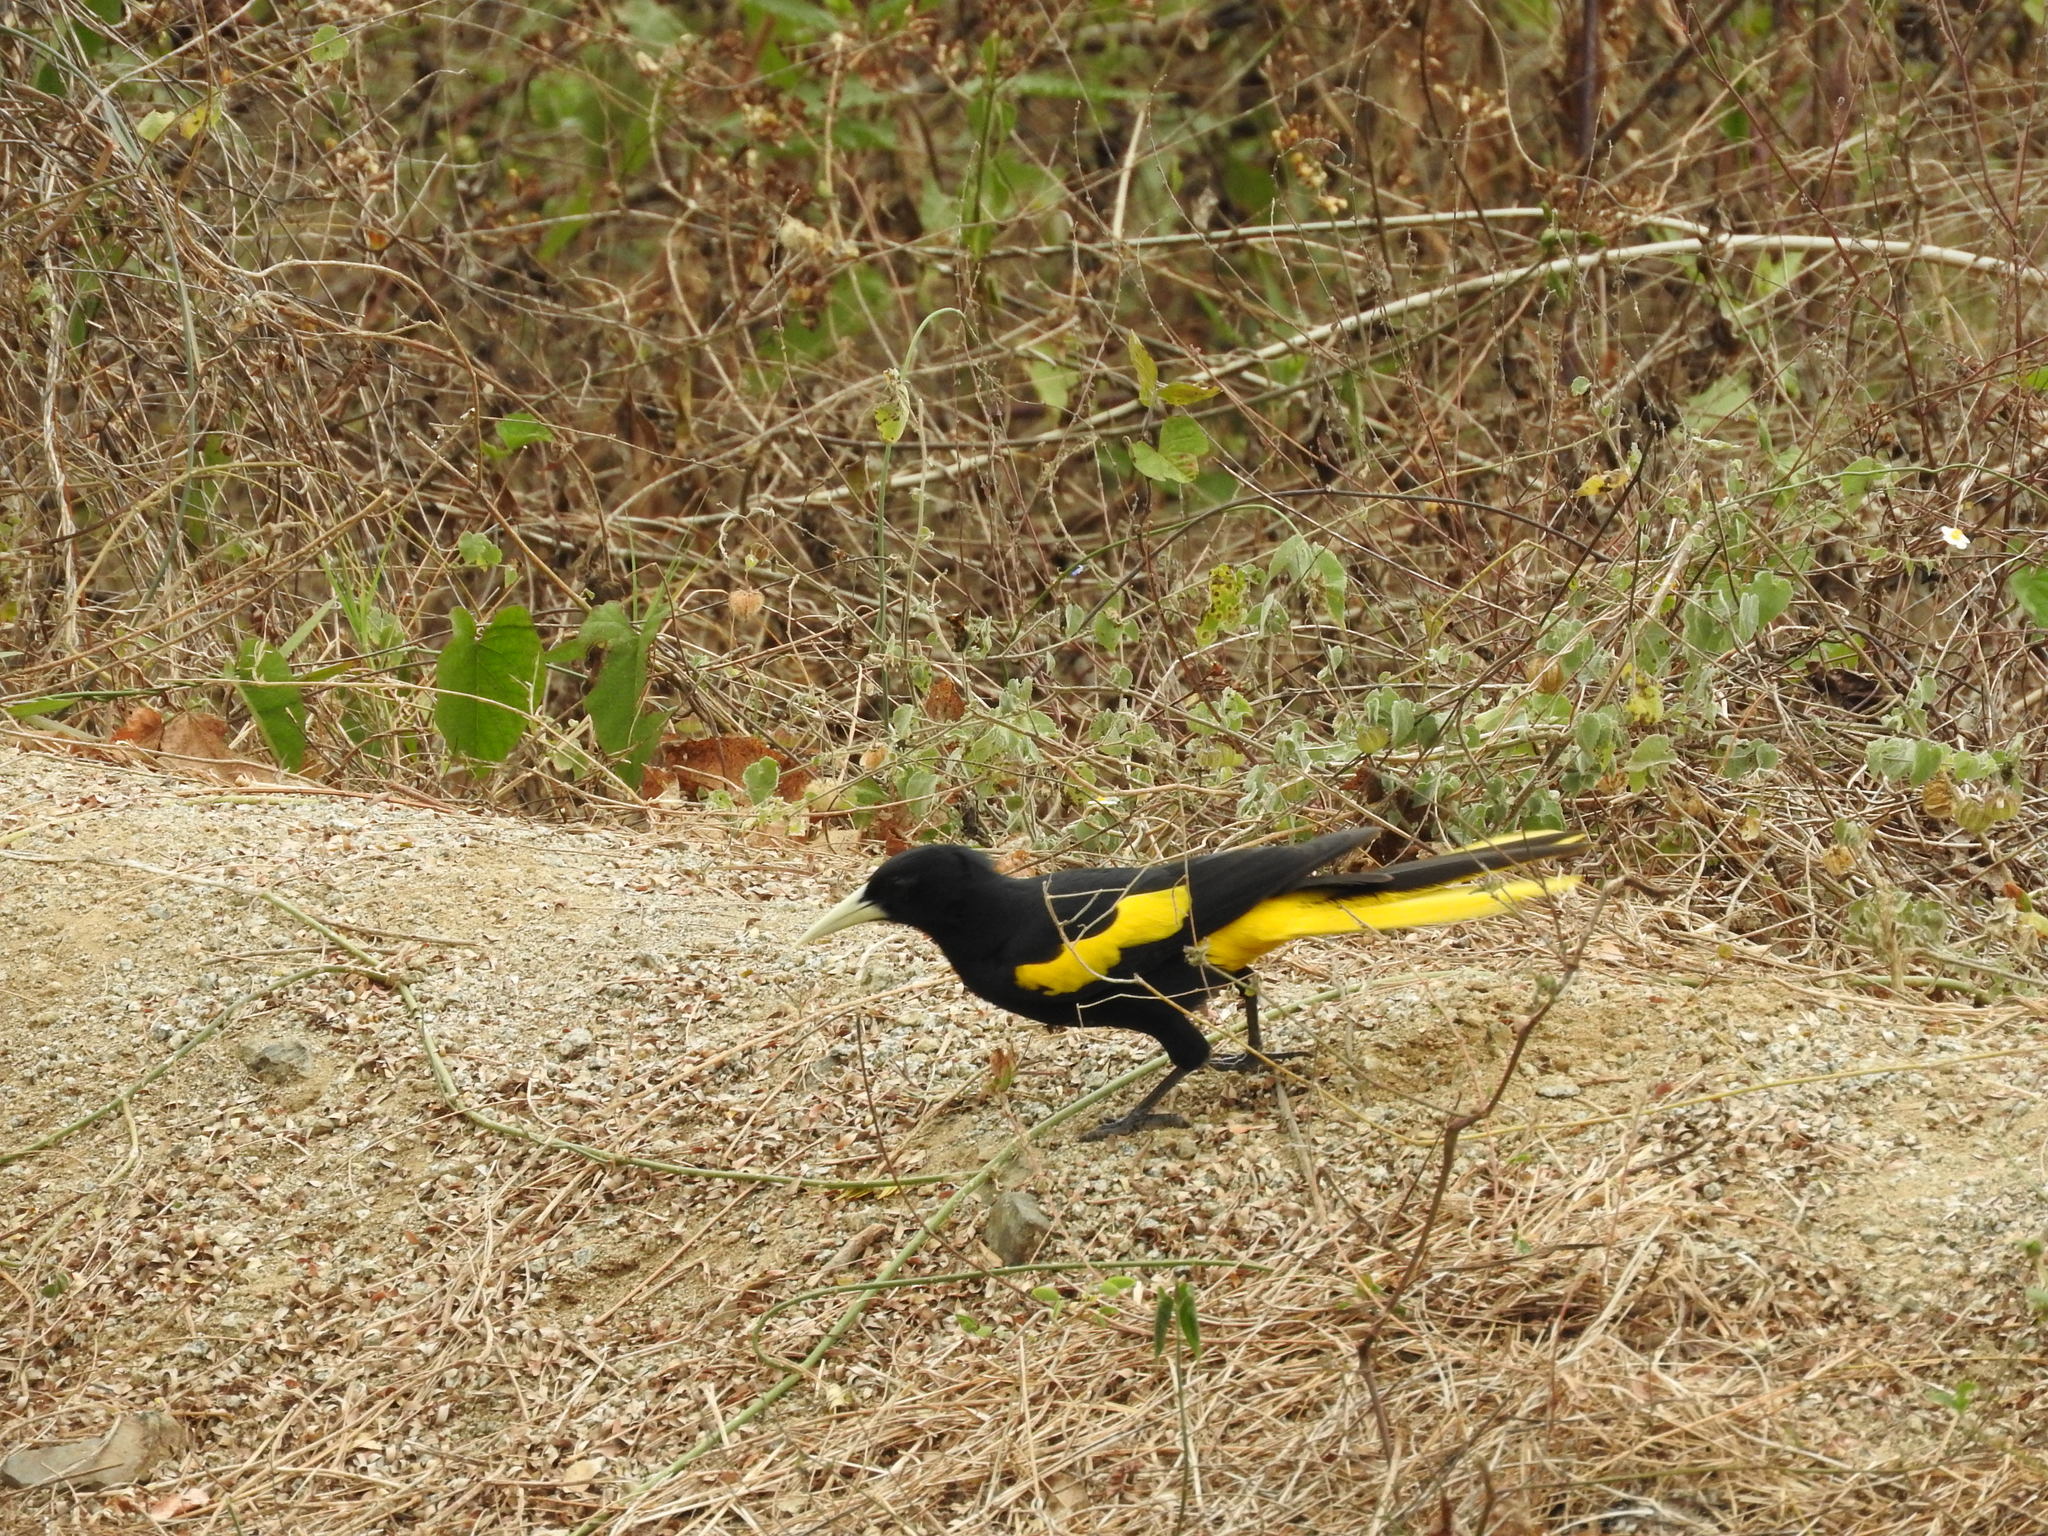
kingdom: Animalia
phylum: Chordata
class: Aves
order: Passeriformes
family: Icteridae
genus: Cacicus
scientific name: Cacicus melanicterus
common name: Yellow-winged cacique
